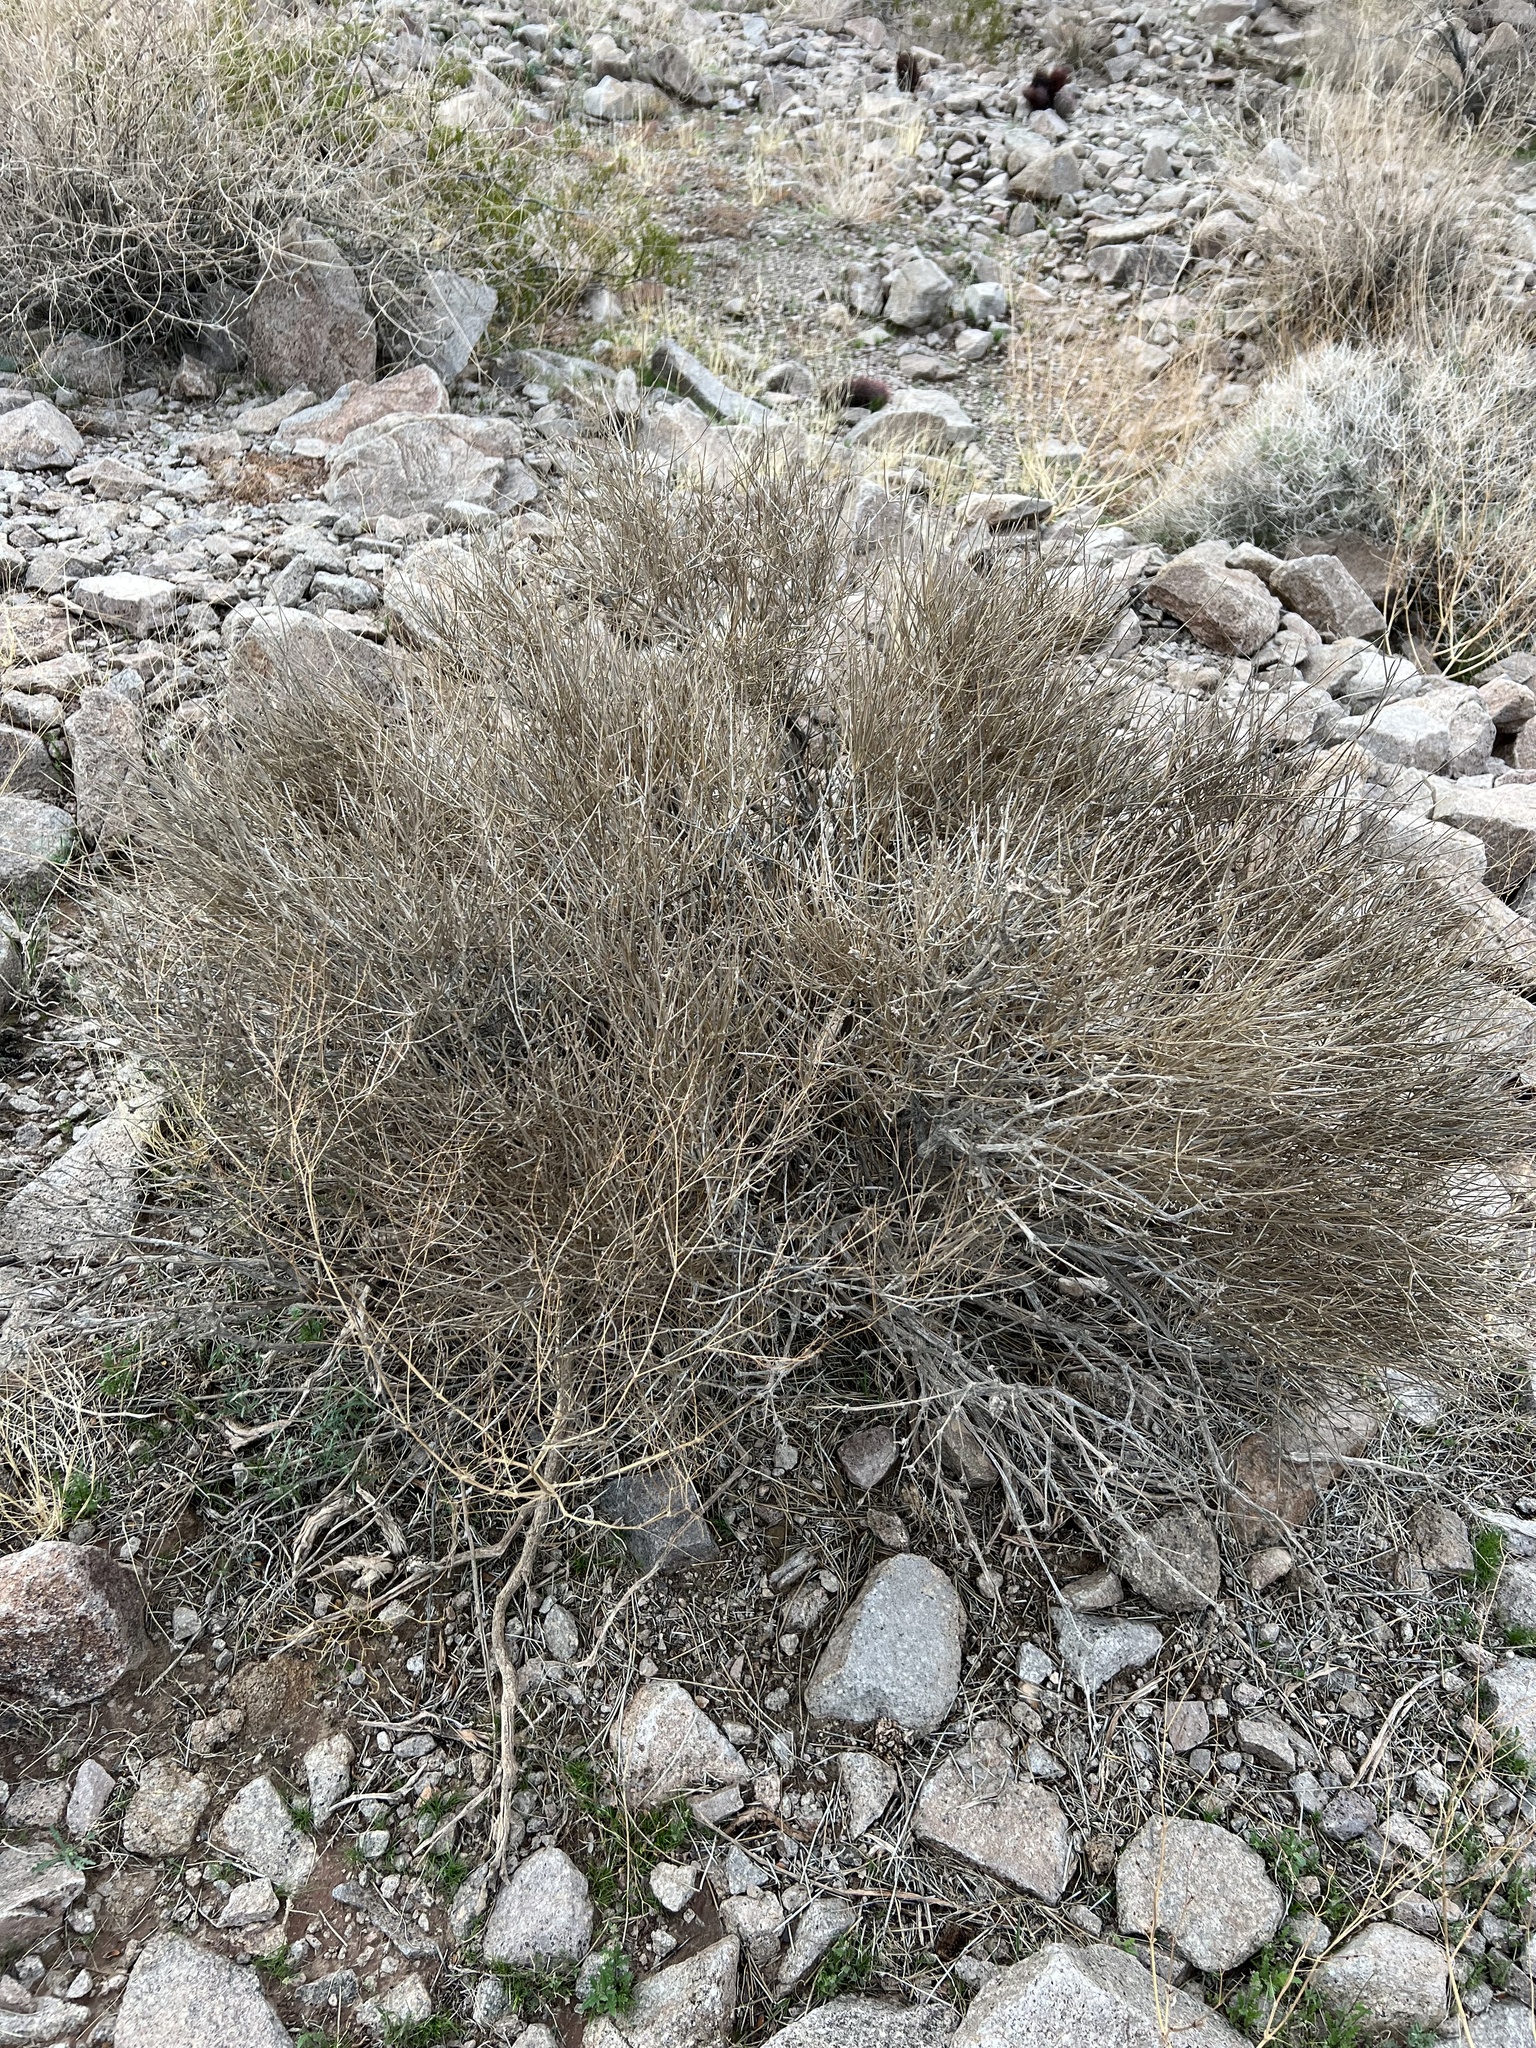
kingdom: Plantae
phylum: Tracheophyta
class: Gnetopsida
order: Ephedrales
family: Ephedraceae
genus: Ephedra
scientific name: Ephedra nevadensis
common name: Gray ephedra
